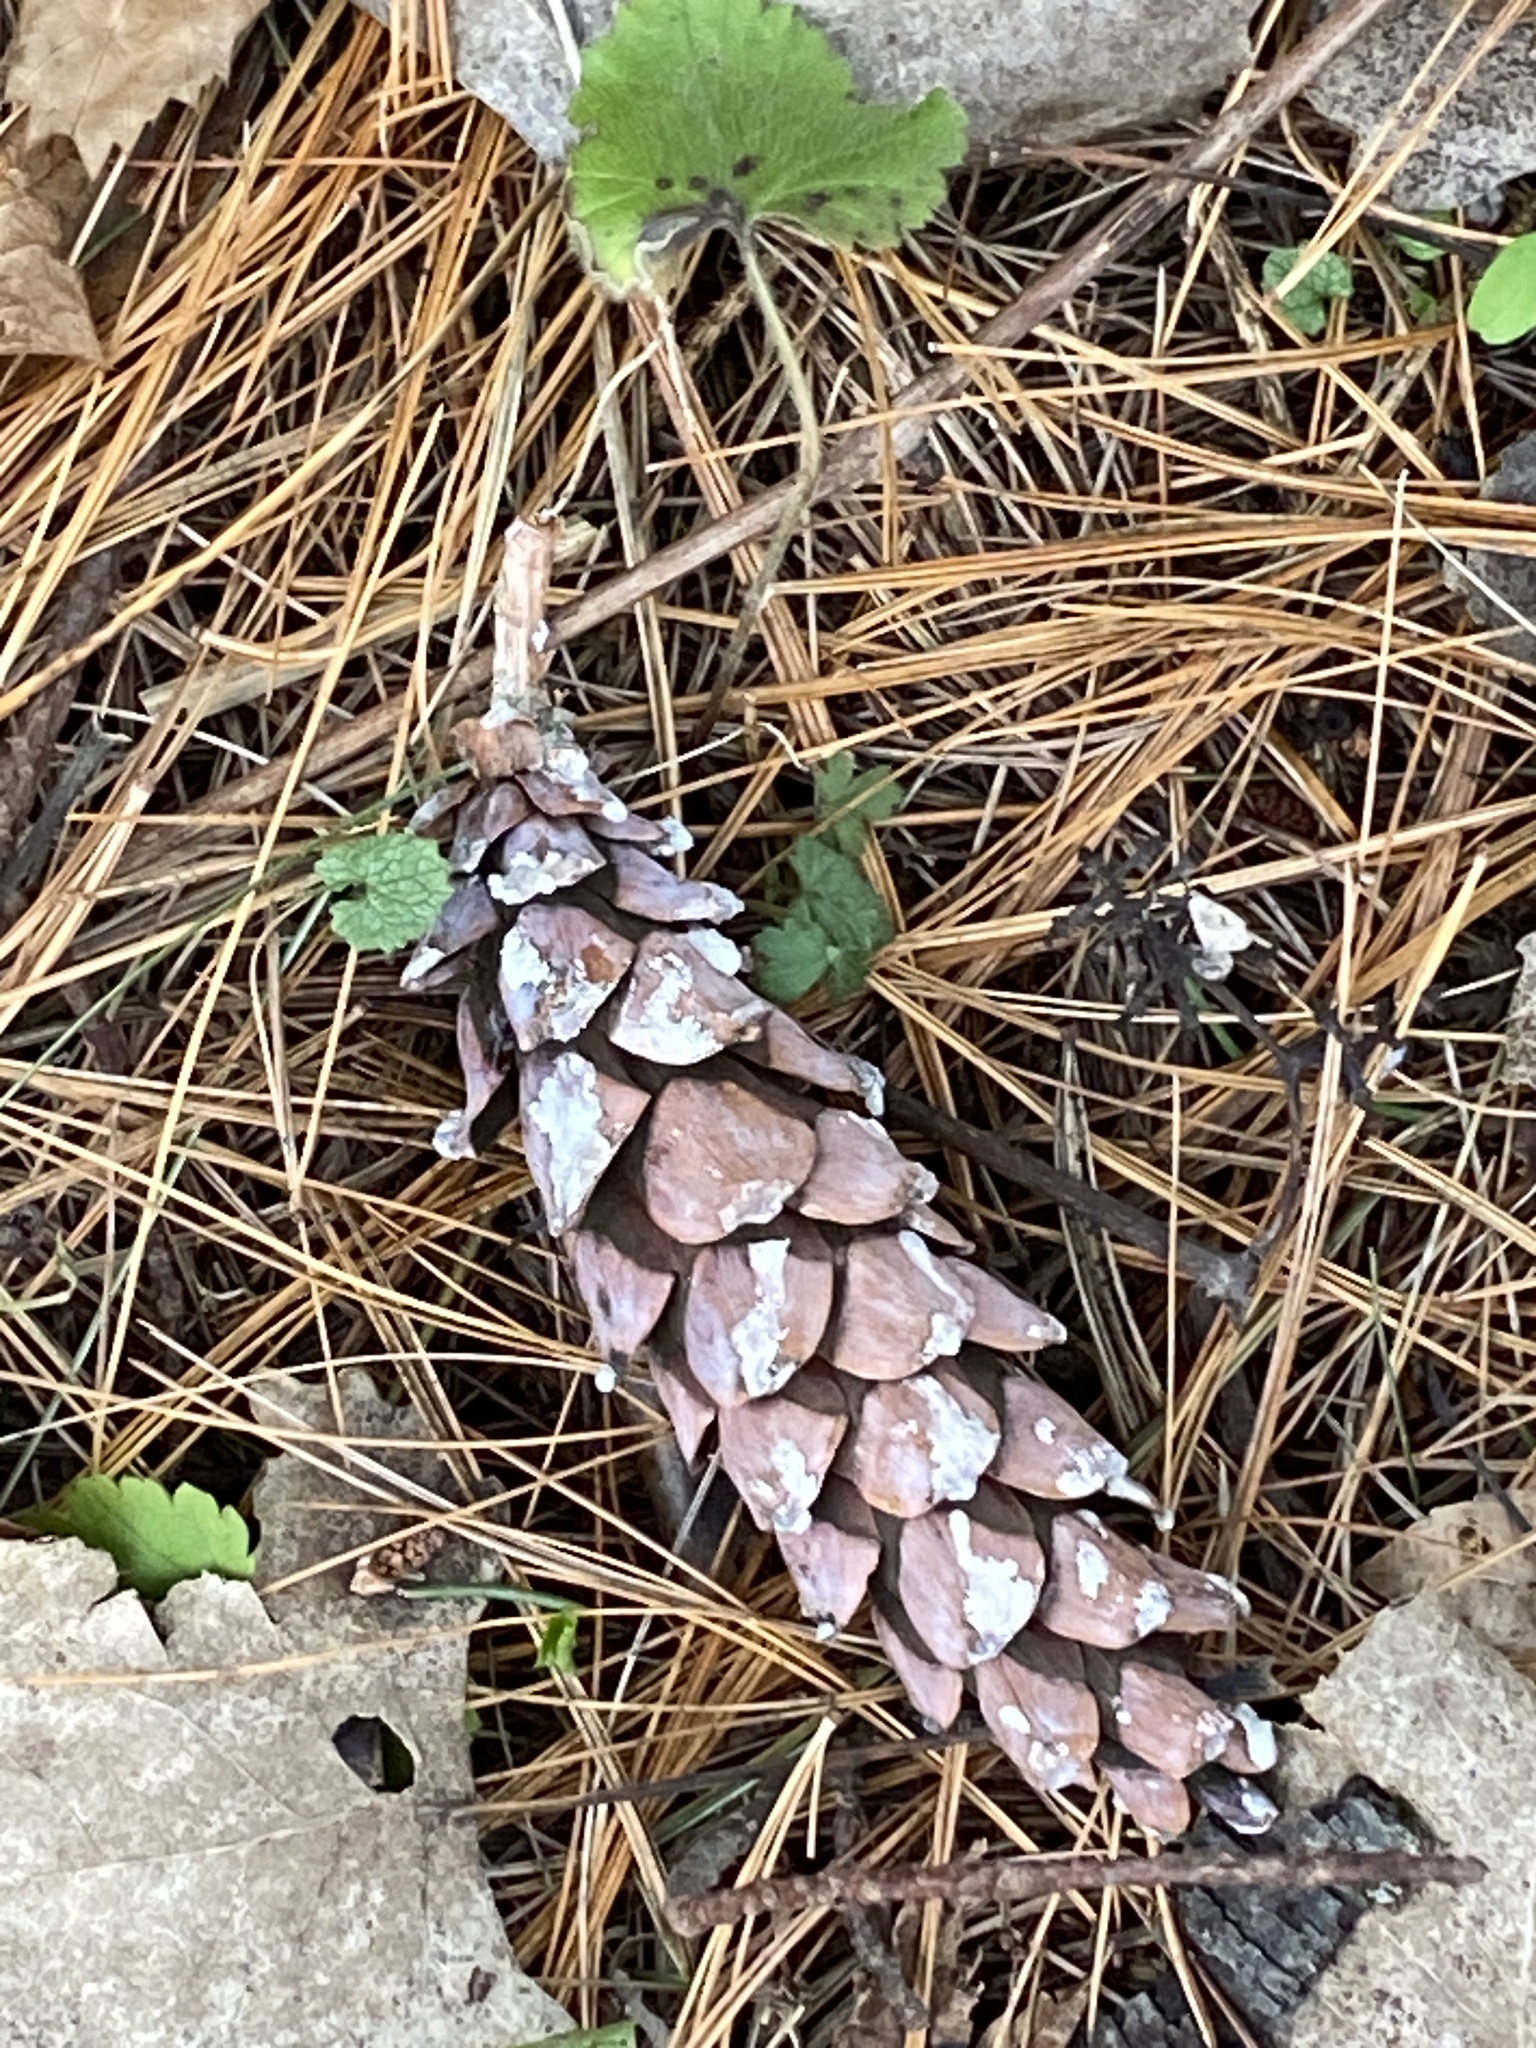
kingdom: Plantae
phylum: Tracheophyta
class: Pinopsida
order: Pinales
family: Pinaceae
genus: Pinus
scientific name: Pinus strobus
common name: Weymouth pine
